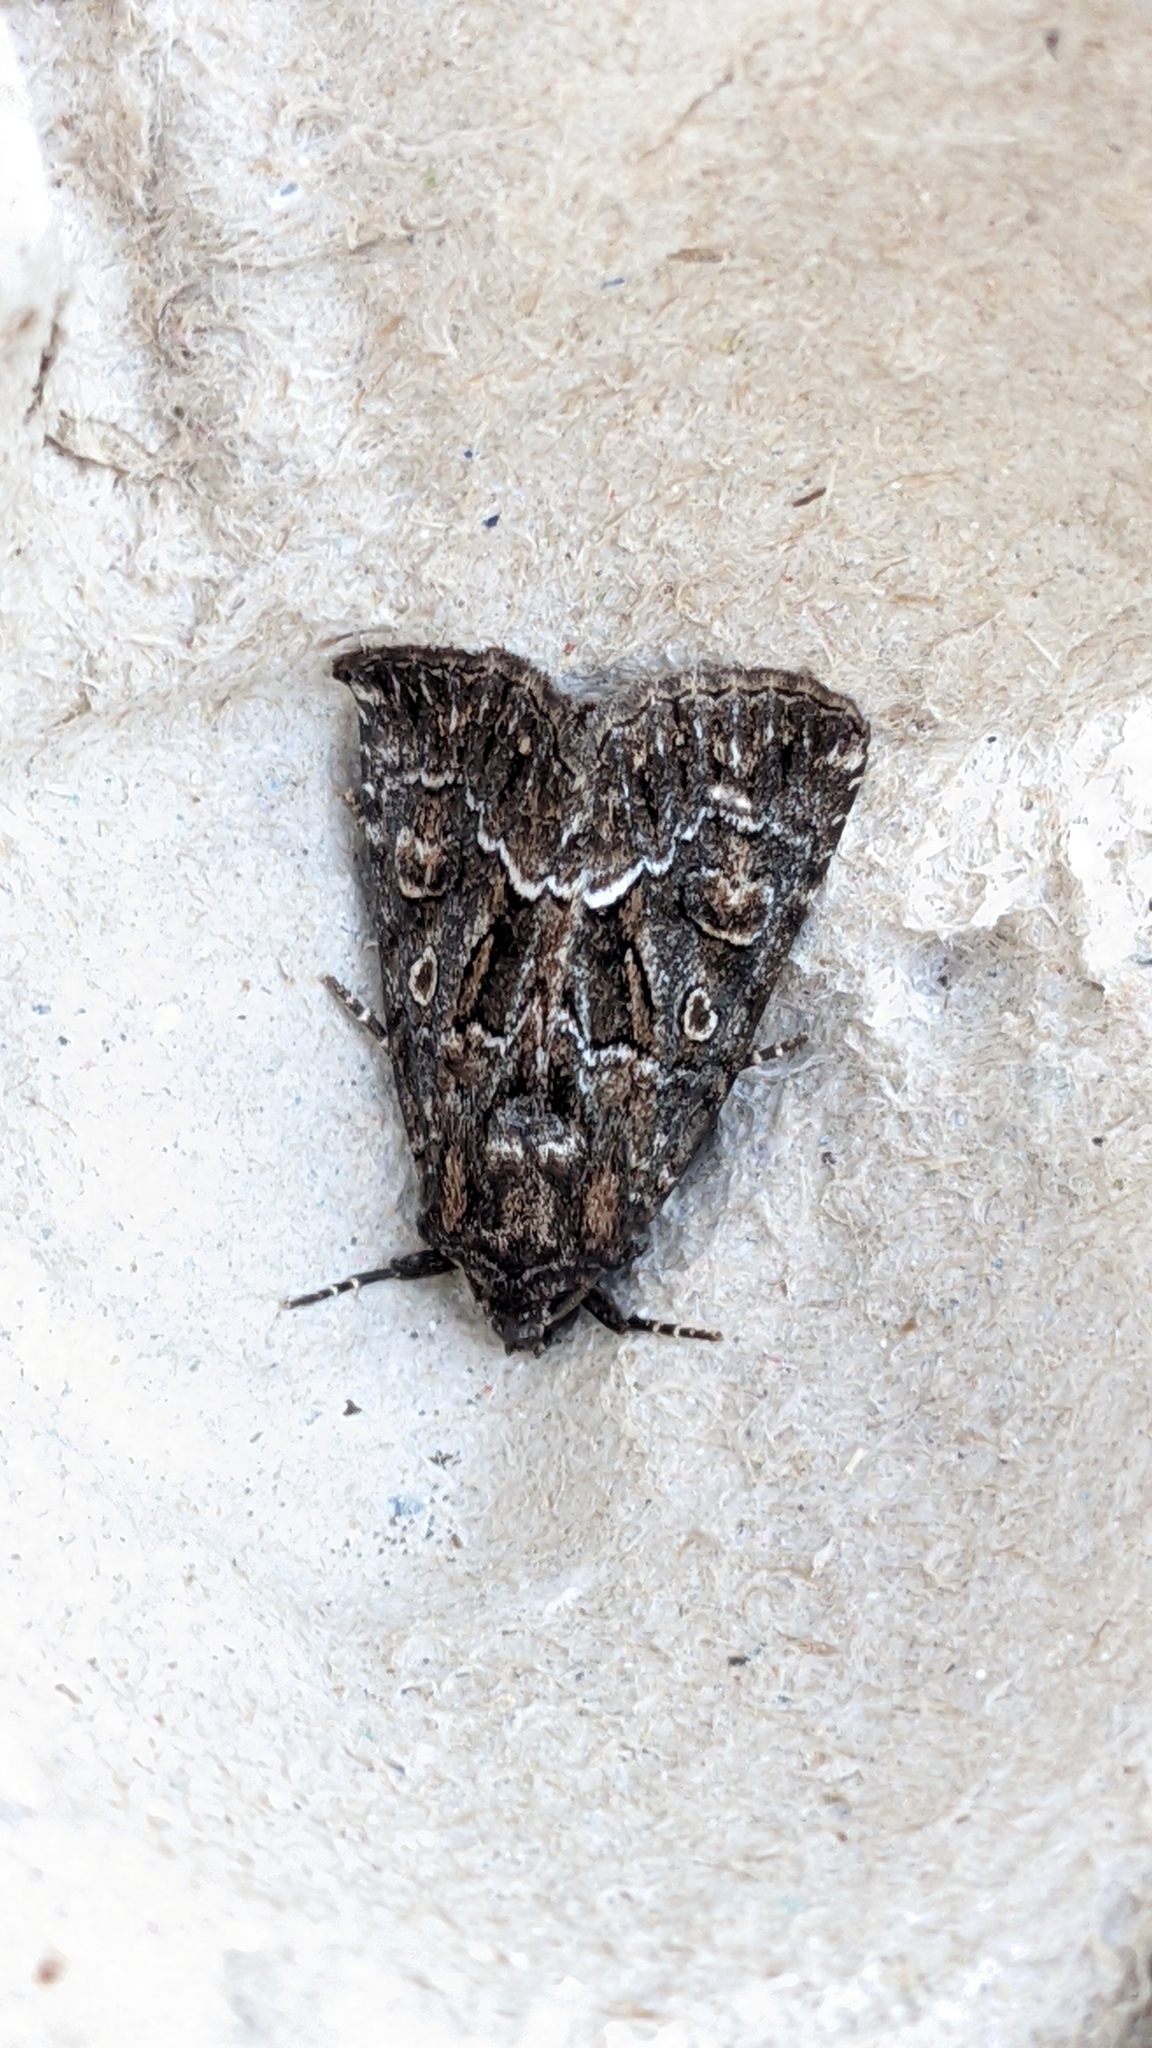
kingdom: Animalia
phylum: Arthropoda
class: Insecta
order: Lepidoptera
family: Noctuidae
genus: Thalpophila
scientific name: Thalpophila matura
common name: Straw underwing
